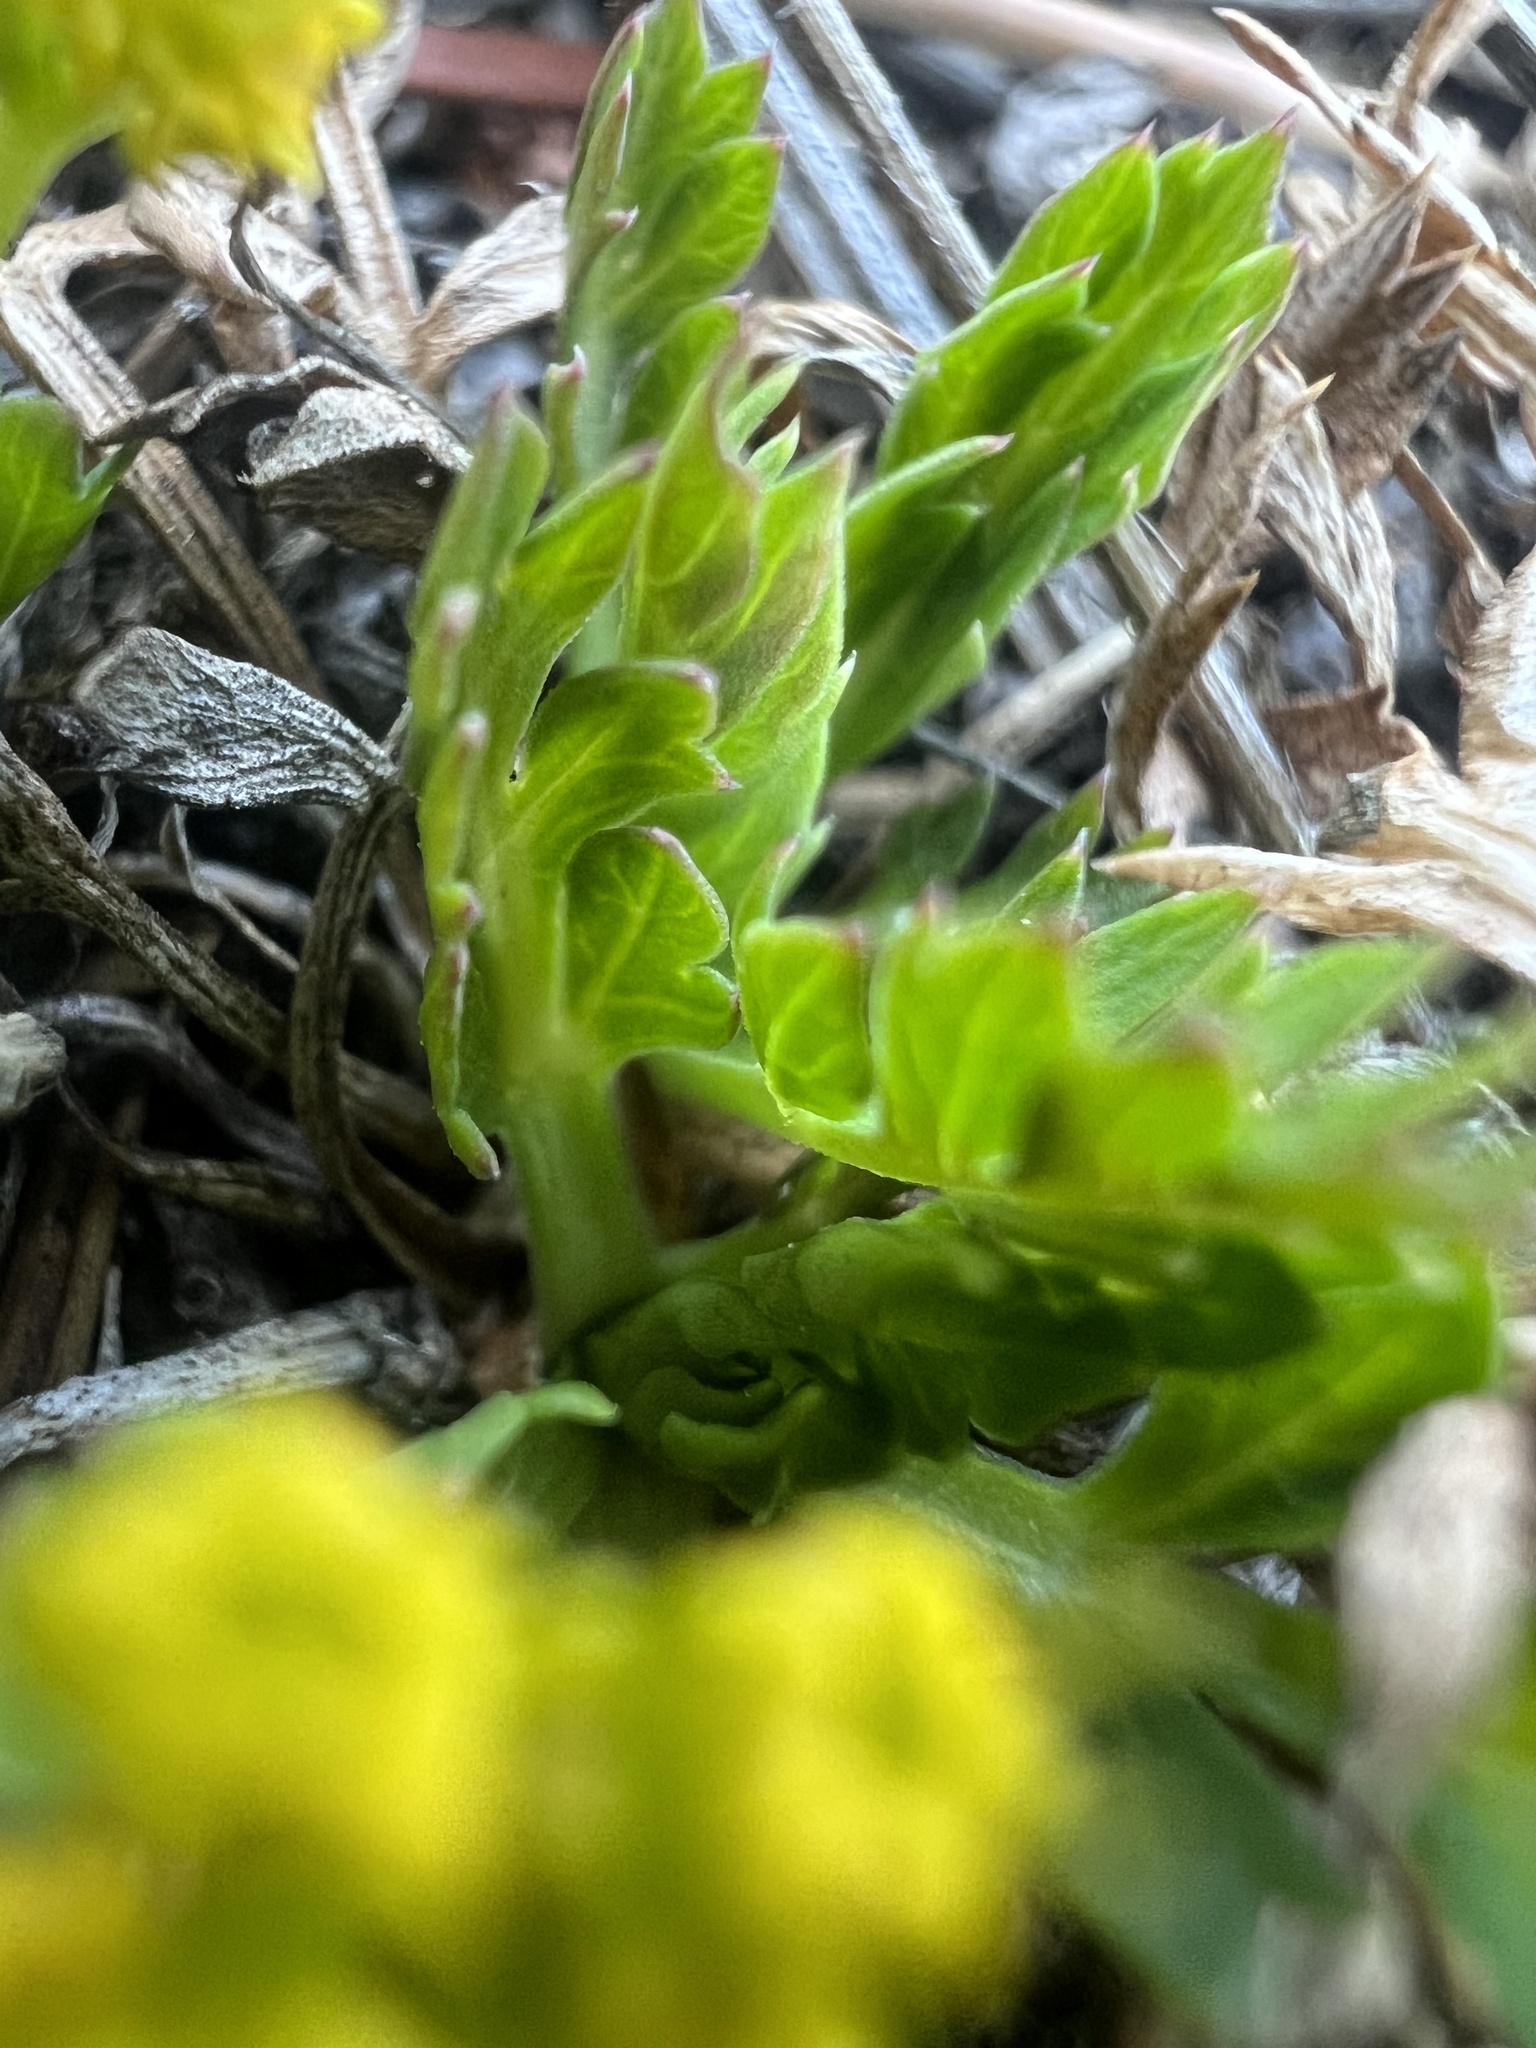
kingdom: Plantae
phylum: Tracheophyta
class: Magnoliopsida
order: Apiales
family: Apiaceae
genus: Cymopterus
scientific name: Cymopterus humilis
